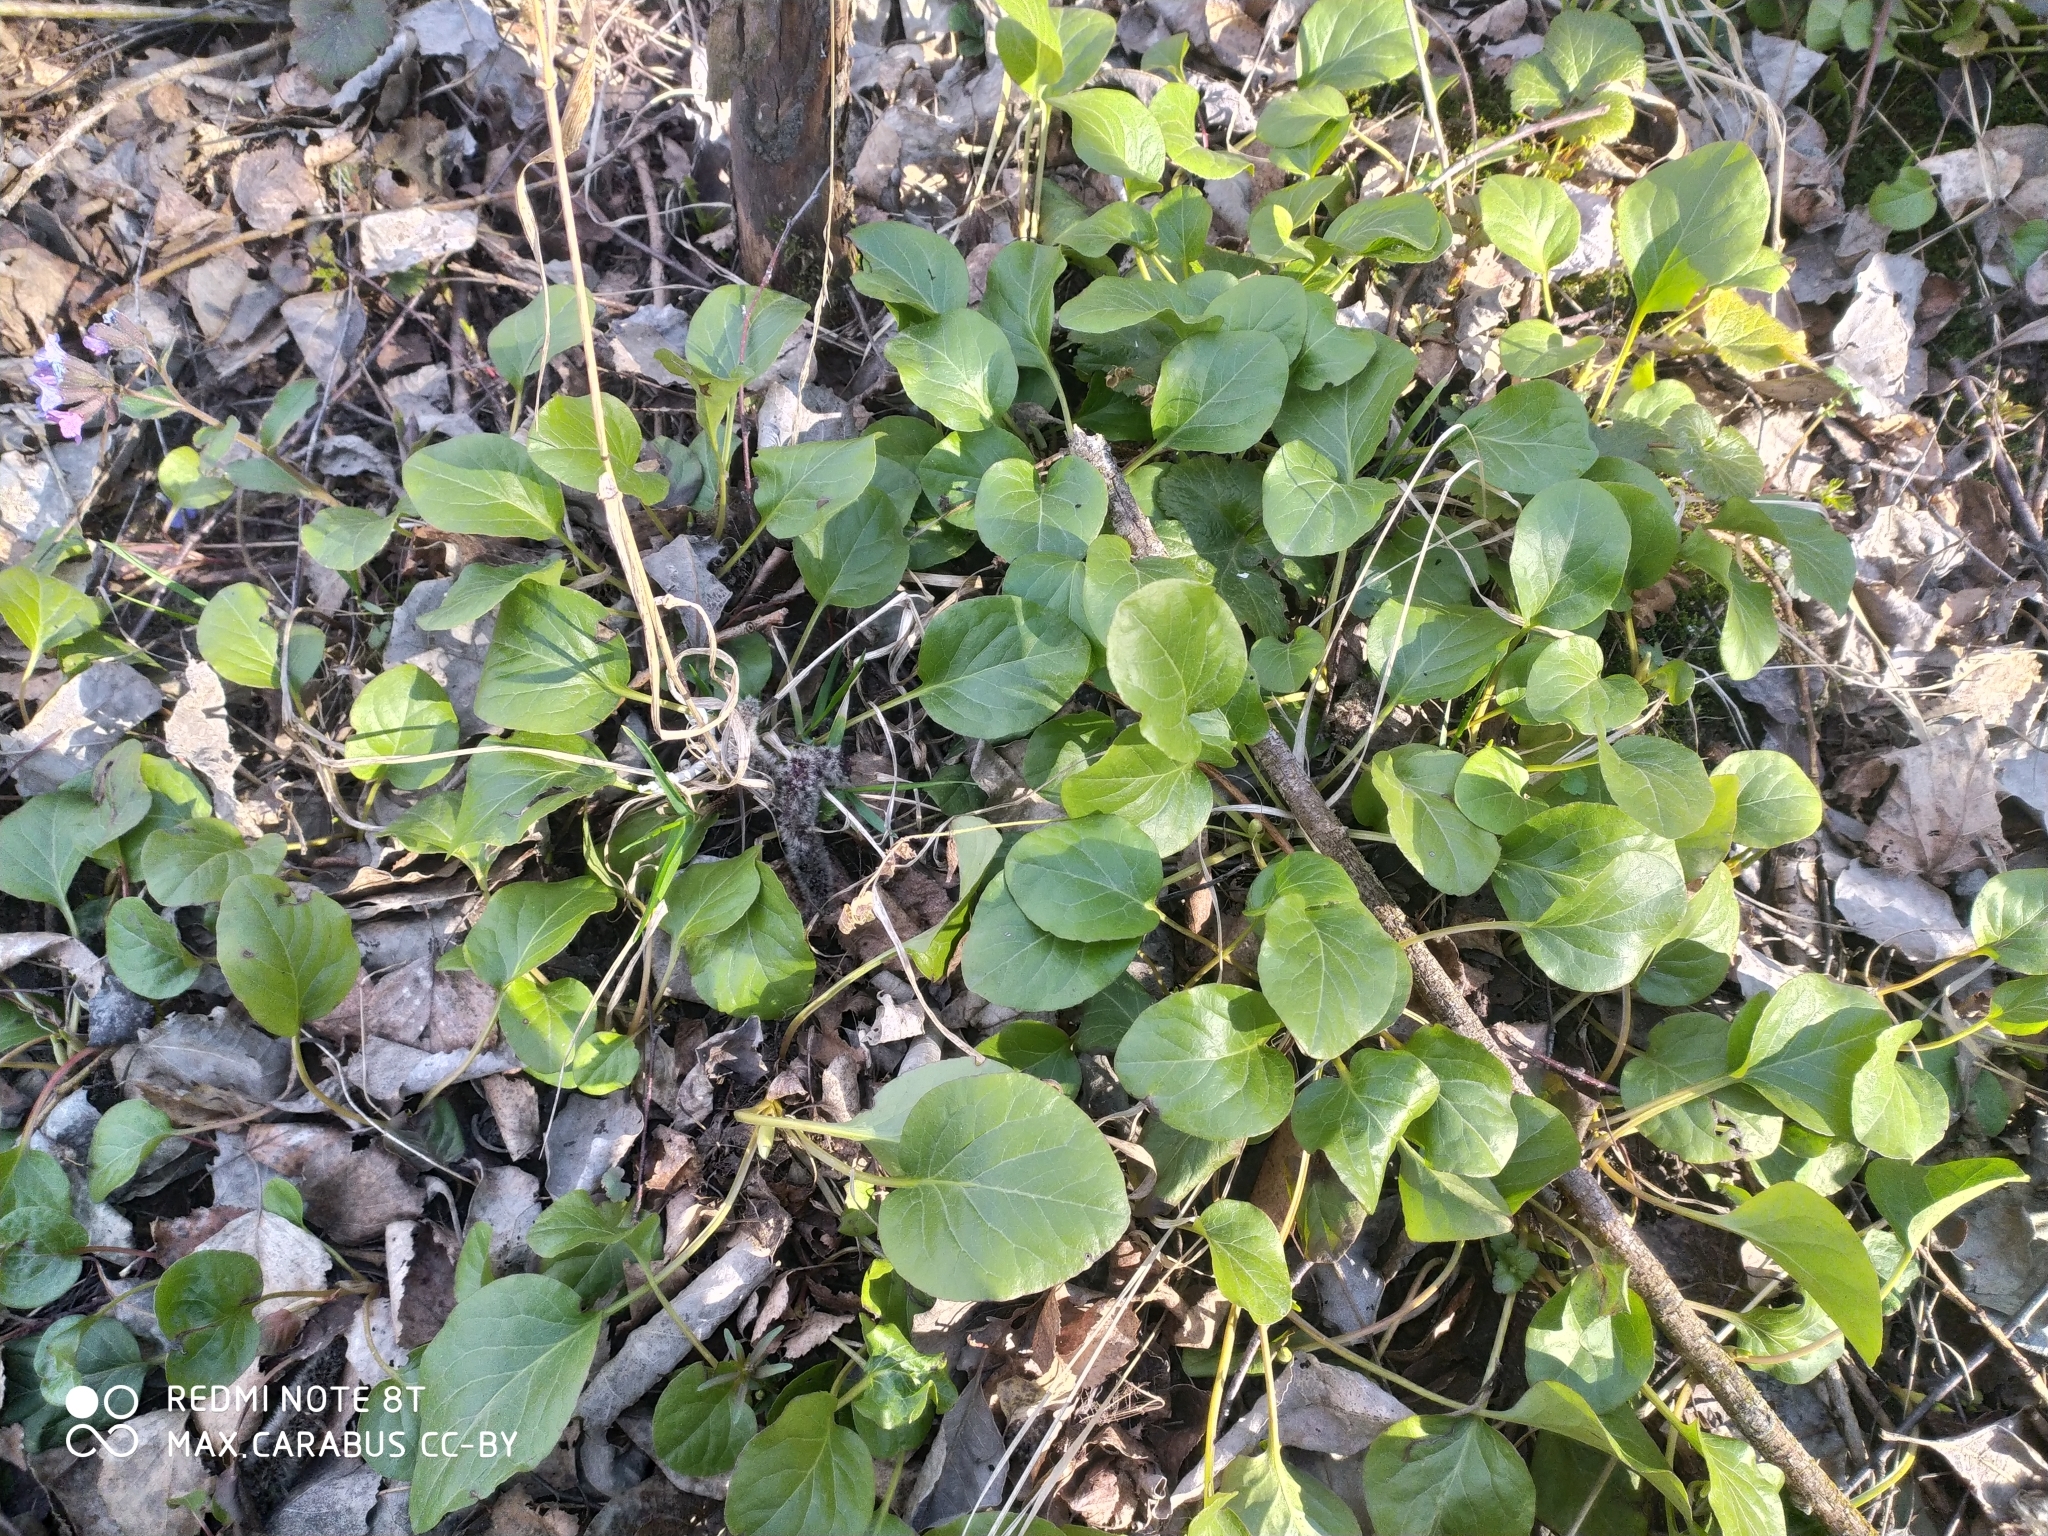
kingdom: Plantae
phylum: Tracheophyta
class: Magnoliopsida
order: Ericales
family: Ericaceae
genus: Pyrola
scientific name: Pyrola rotundifolia
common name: Round-leaved wintergreen
